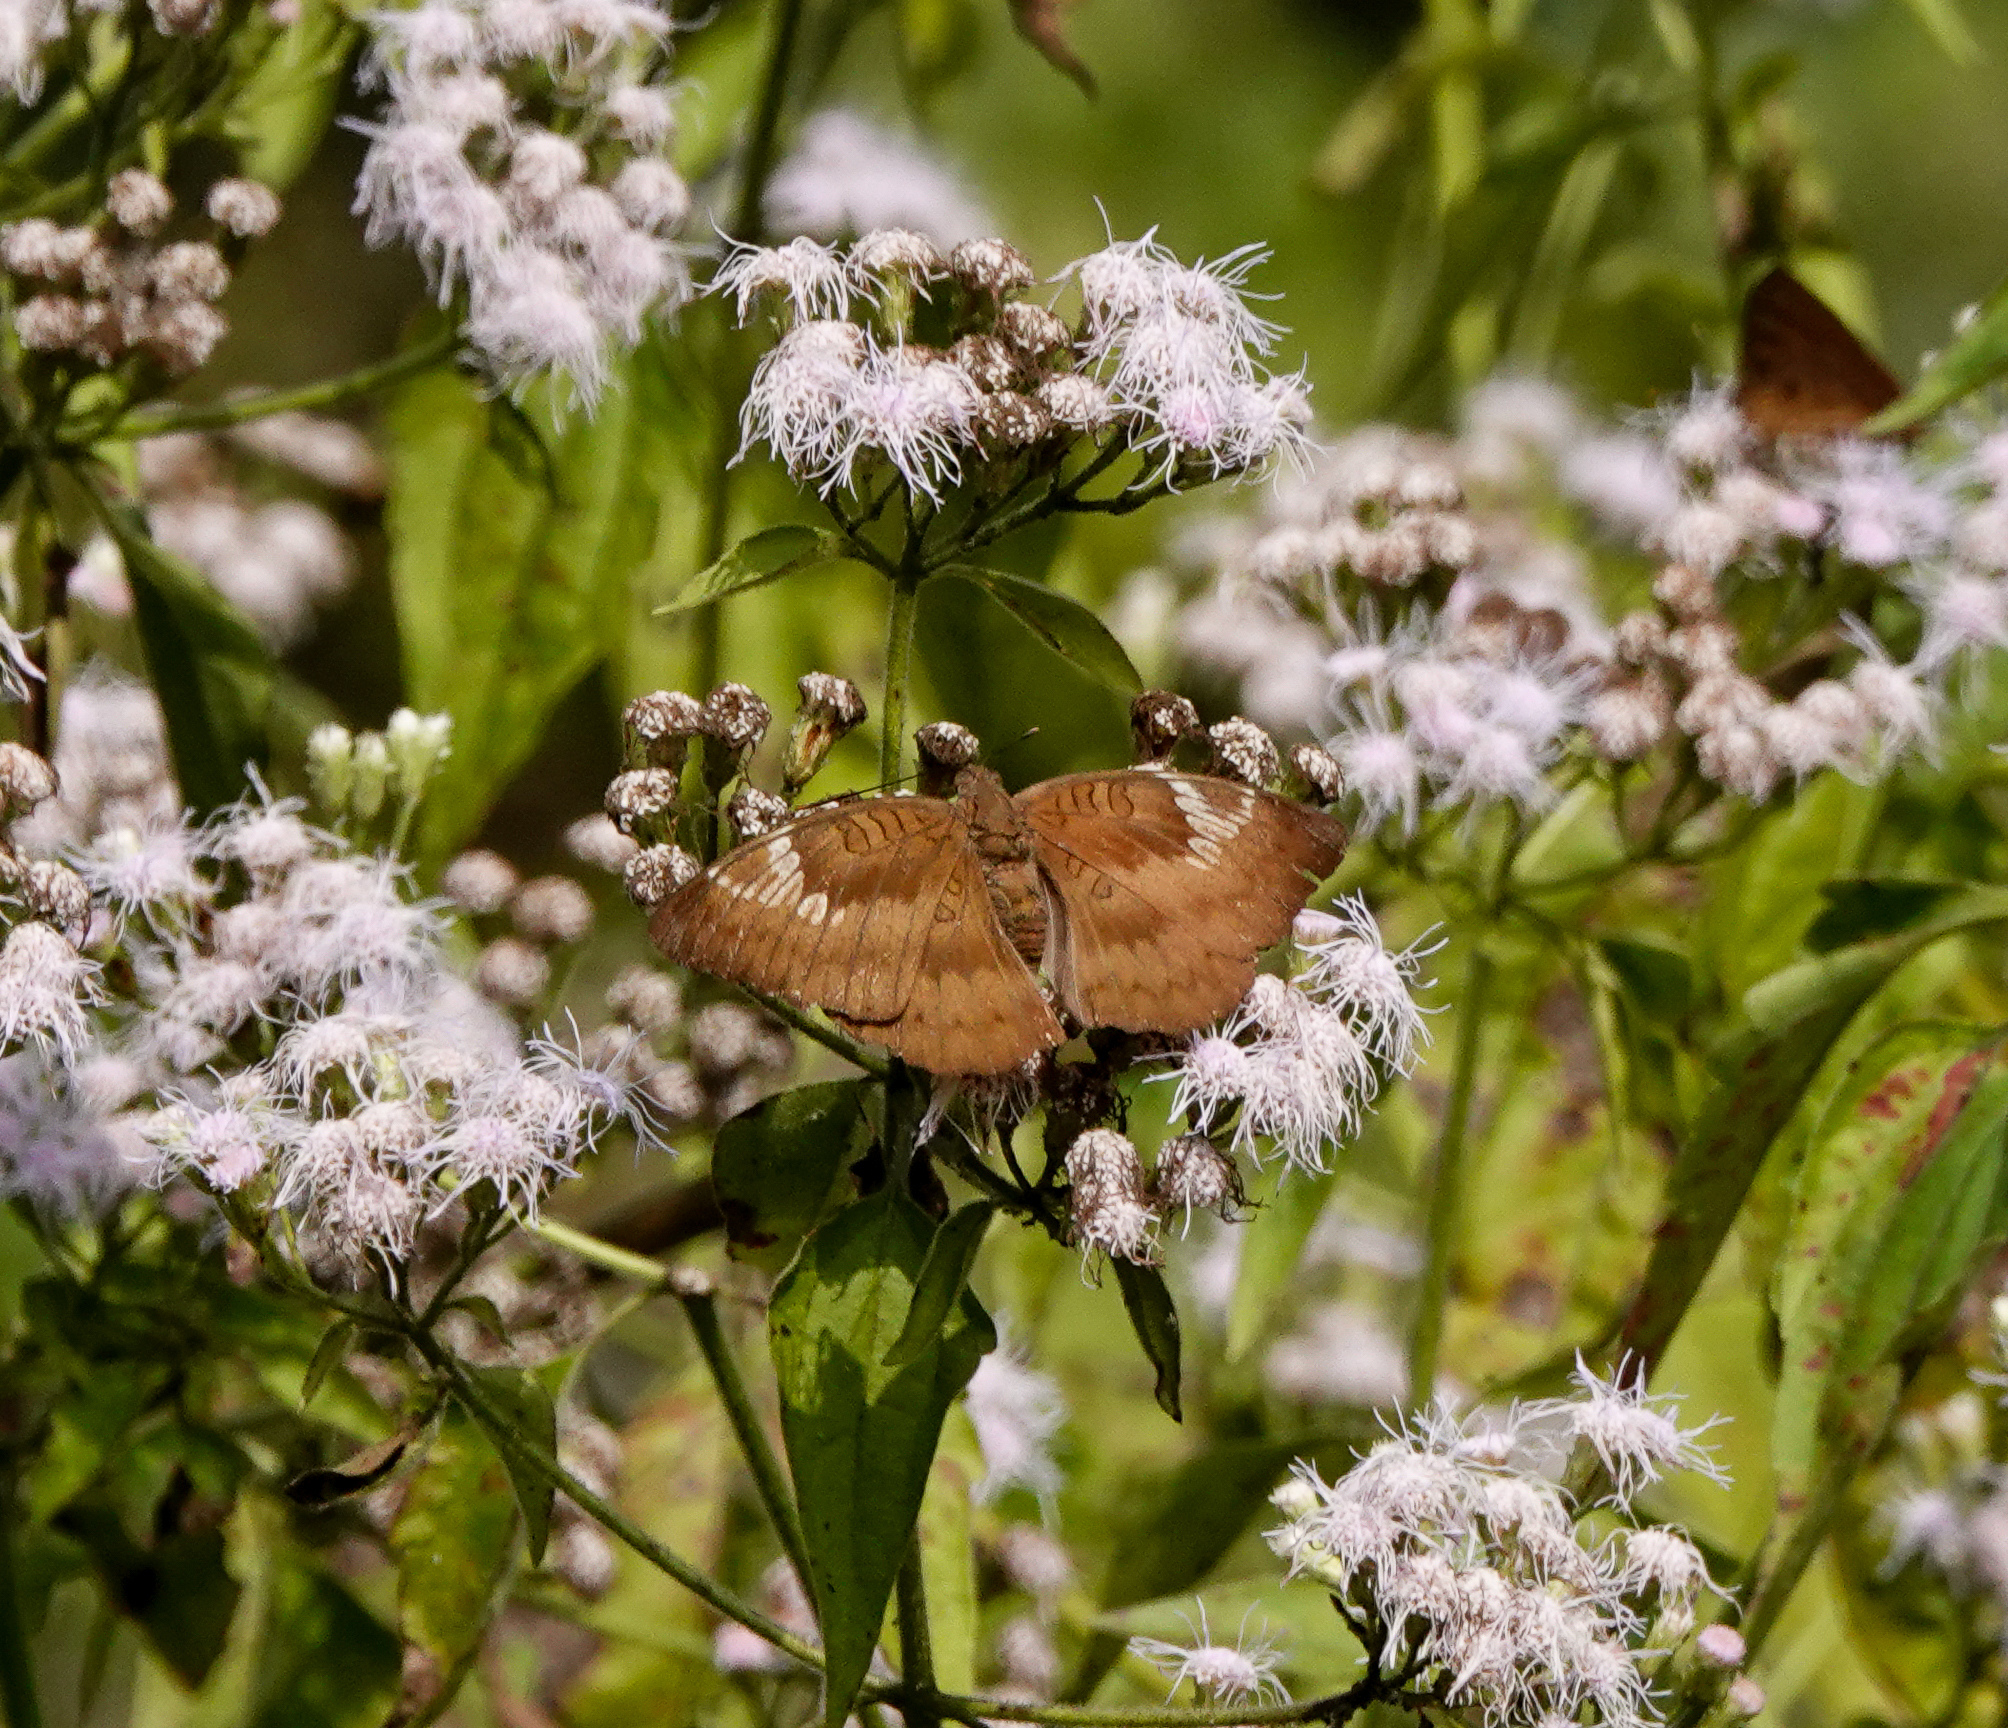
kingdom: Animalia
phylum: Arthropoda
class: Insecta
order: Lepidoptera
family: Nymphalidae
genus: Euthalia
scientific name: Euthalia alpheda
